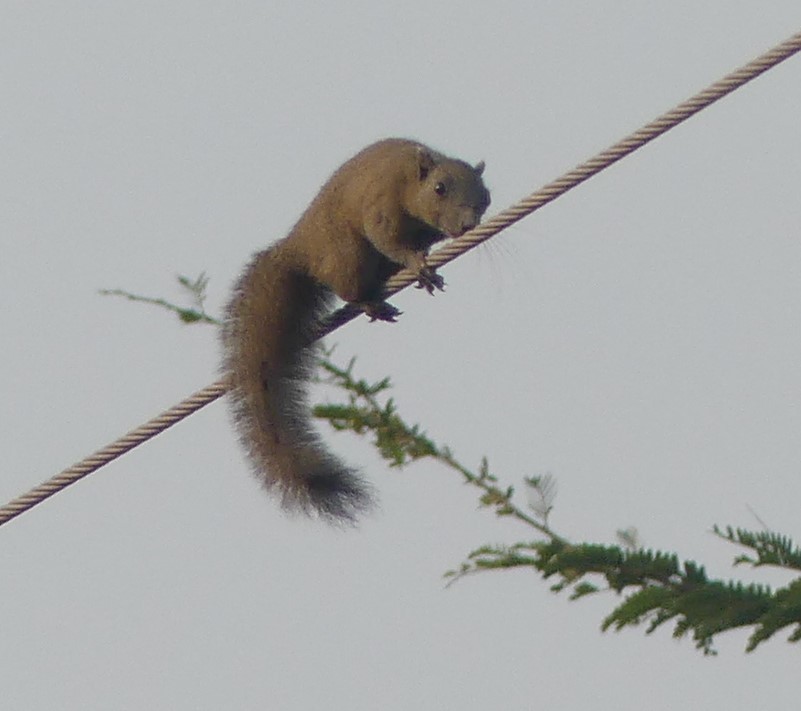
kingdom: Animalia
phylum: Chordata
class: Mammalia
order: Rodentia
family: Sciuridae
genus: Callosciurus
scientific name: Callosciurus caniceps
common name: Gray-bellied squirrel
